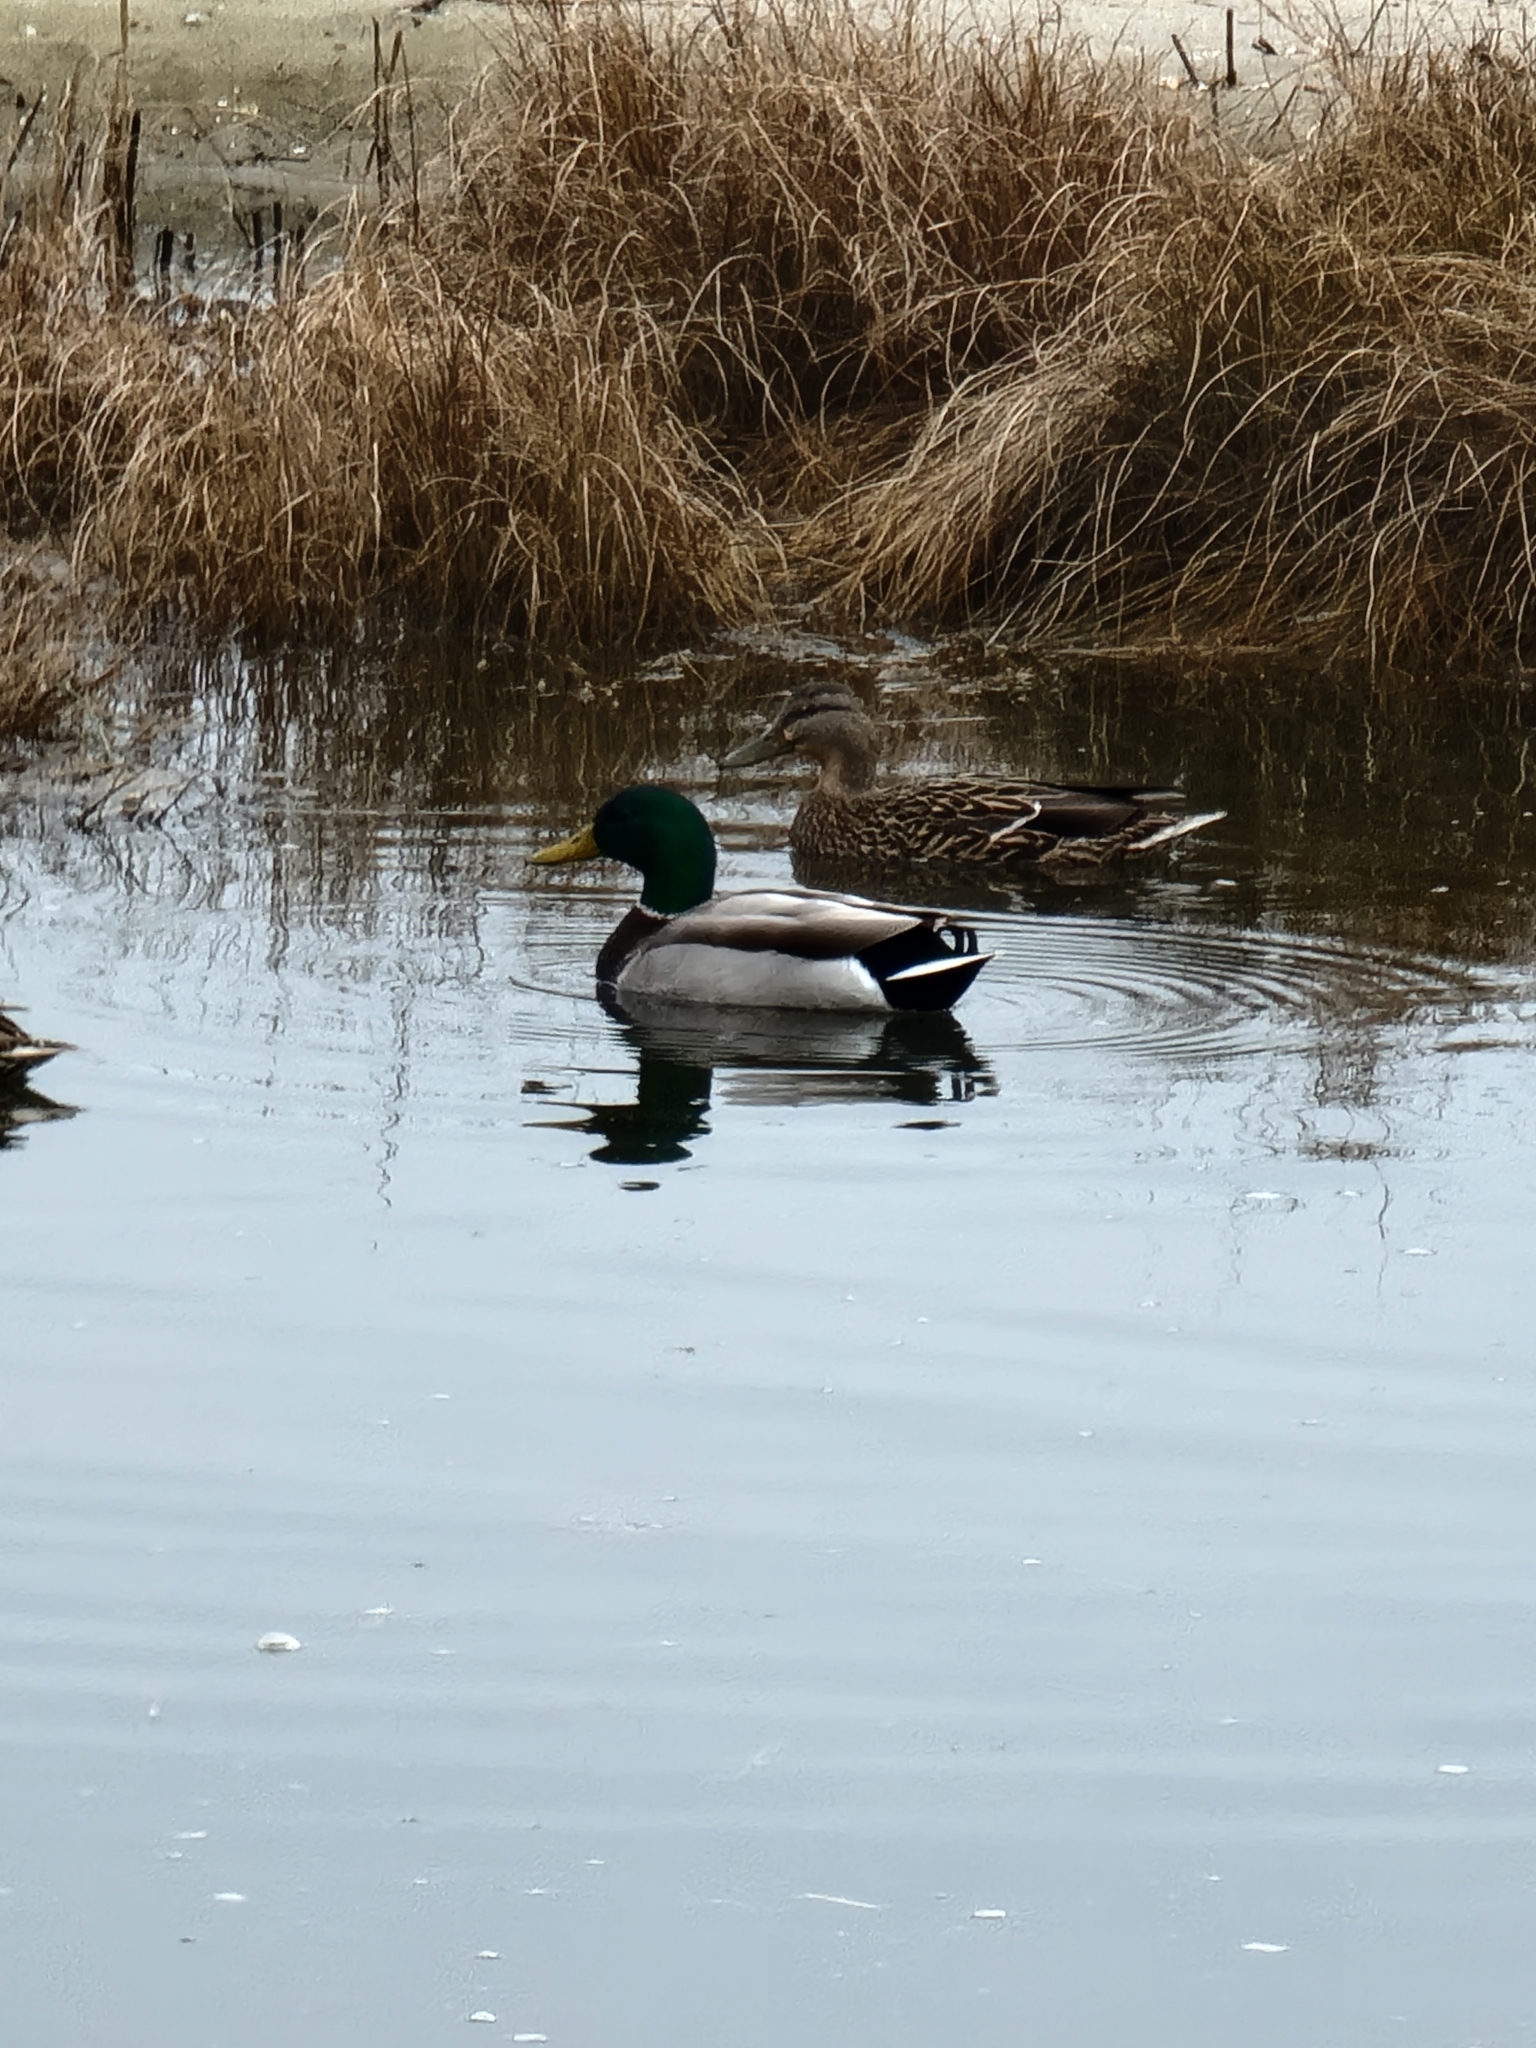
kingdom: Animalia
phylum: Chordata
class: Aves
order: Anseriformes
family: Anatidae
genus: Anas
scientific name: Anas platyrhynchos
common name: Mallard
